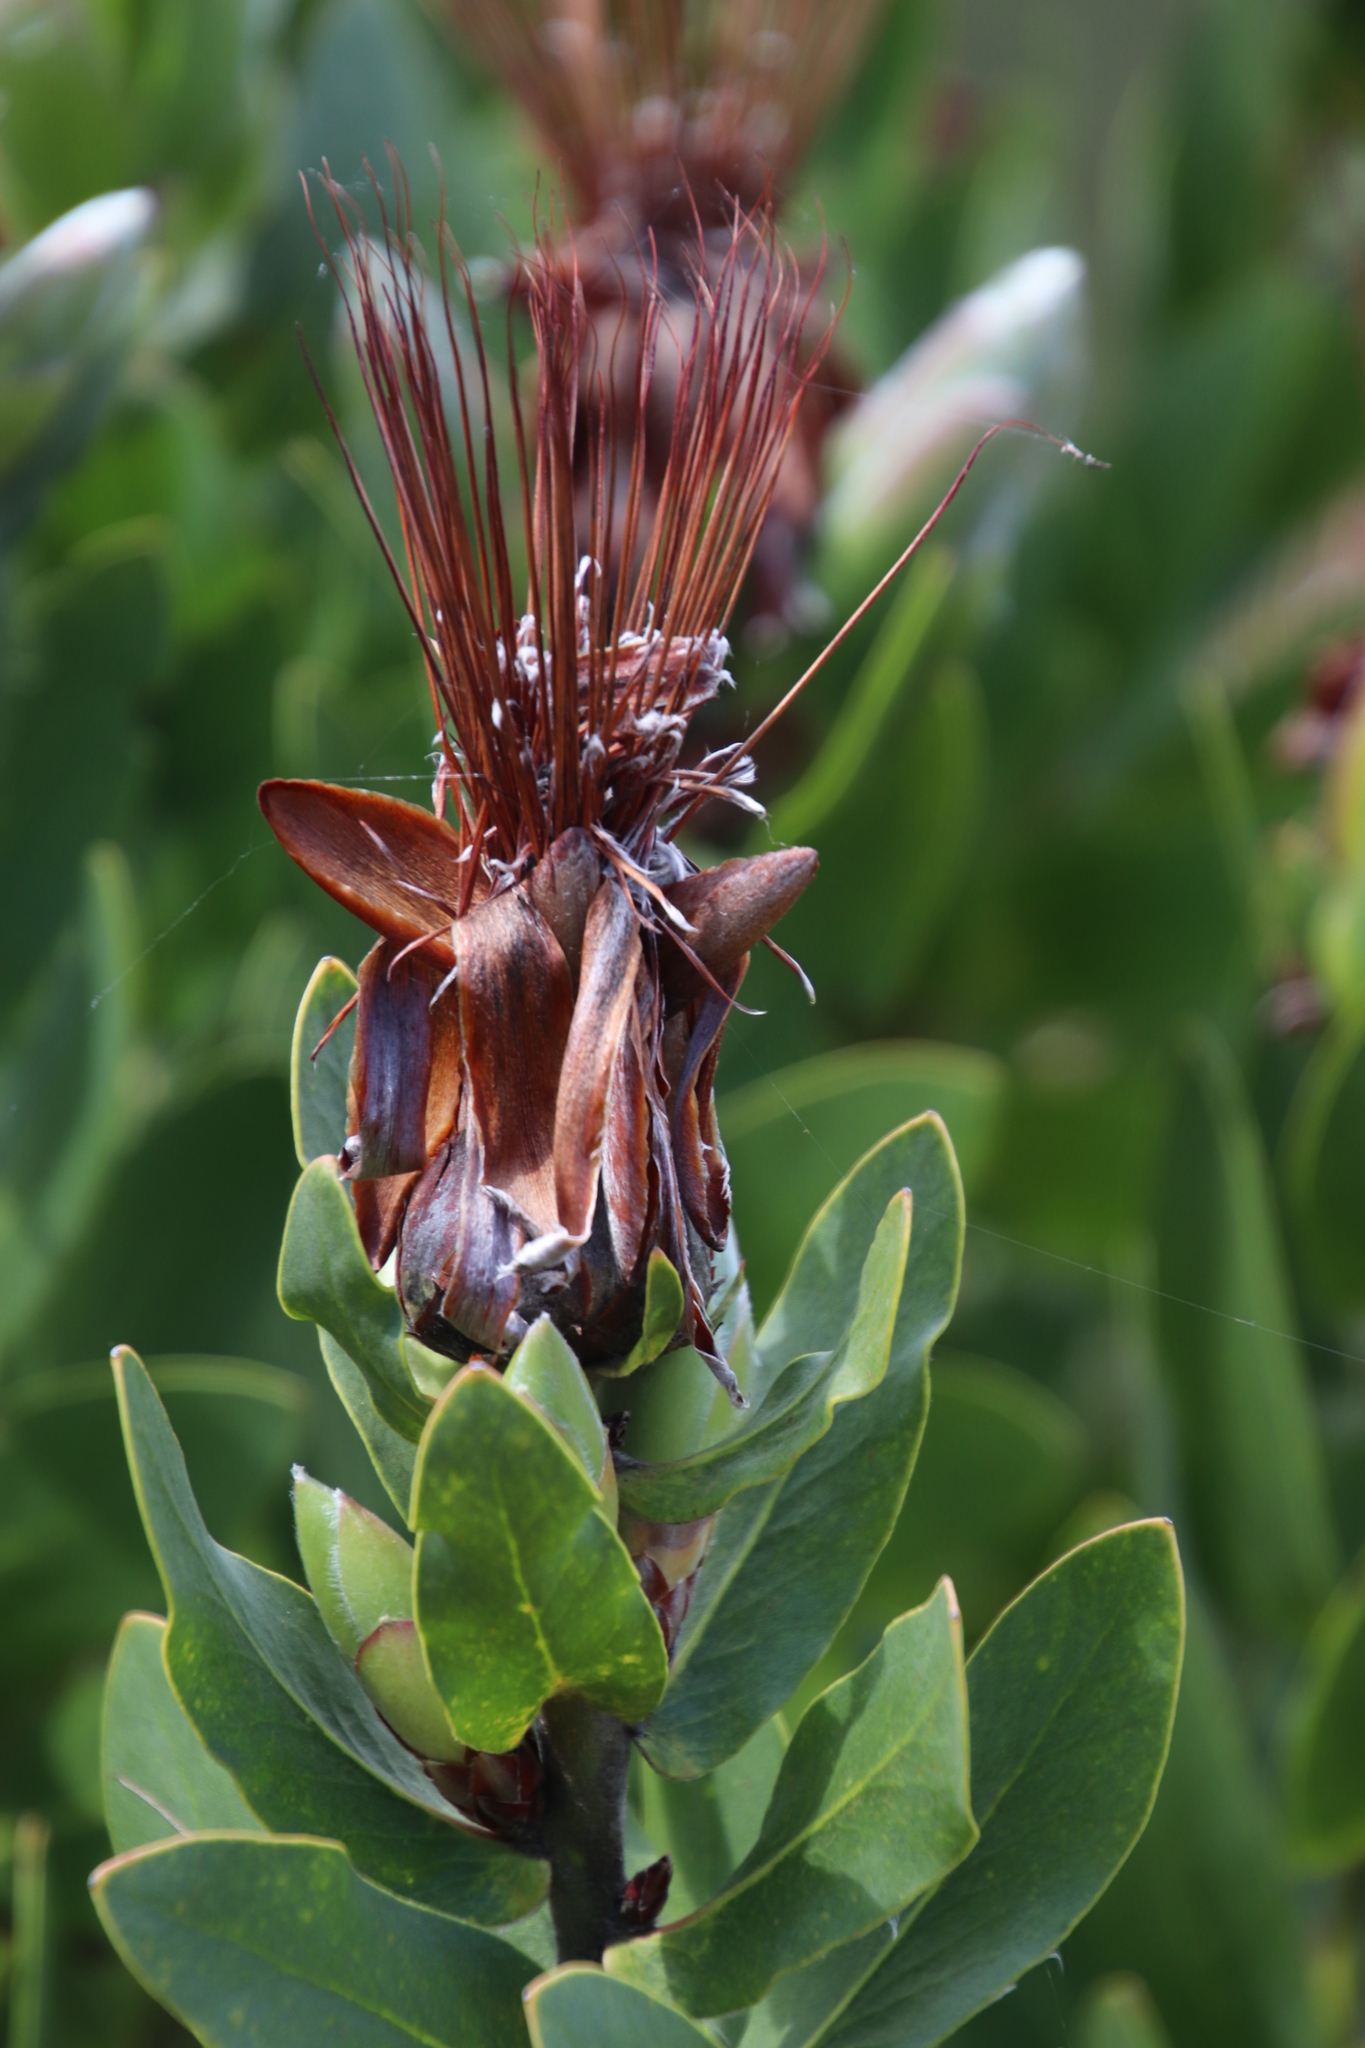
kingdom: Plantae
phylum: Tracheophyta
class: Magnoliopsida
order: Proteales
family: Proteaceae
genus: Protea
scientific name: Protea aurea
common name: Shuttlecock sugarbush
